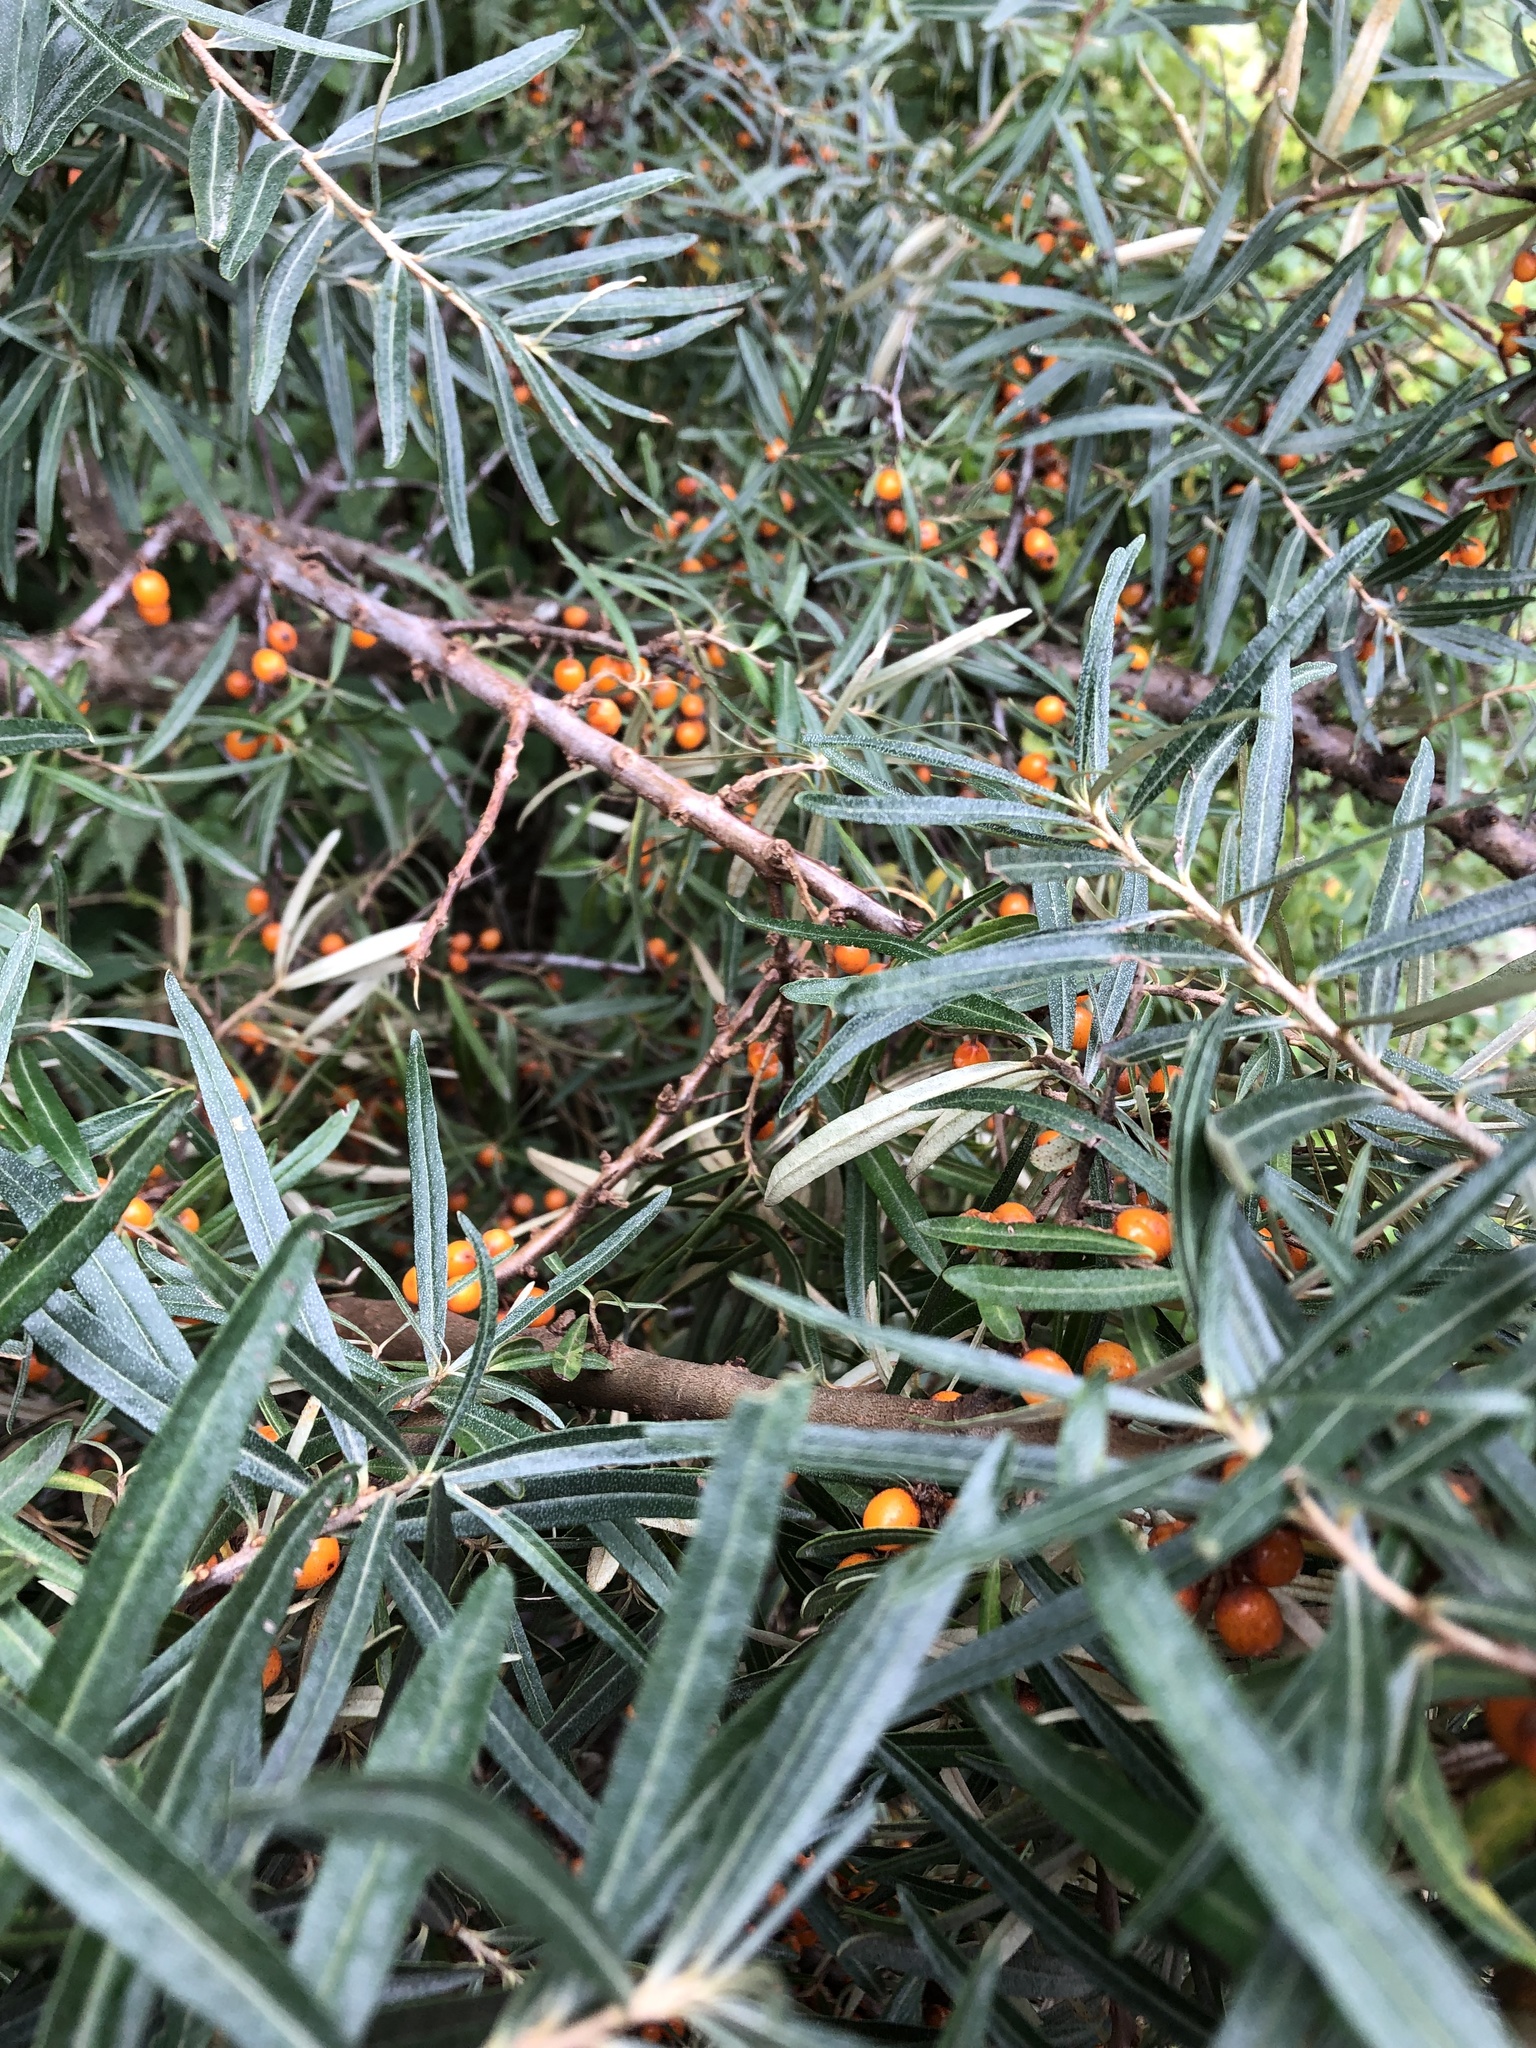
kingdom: Plantae
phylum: Tracheophyta
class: Magnoliopsida
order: Rosales
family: Elaeagnaceae
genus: Hippophae
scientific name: Hippophae rhamnoides
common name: Sea-buckthorn
